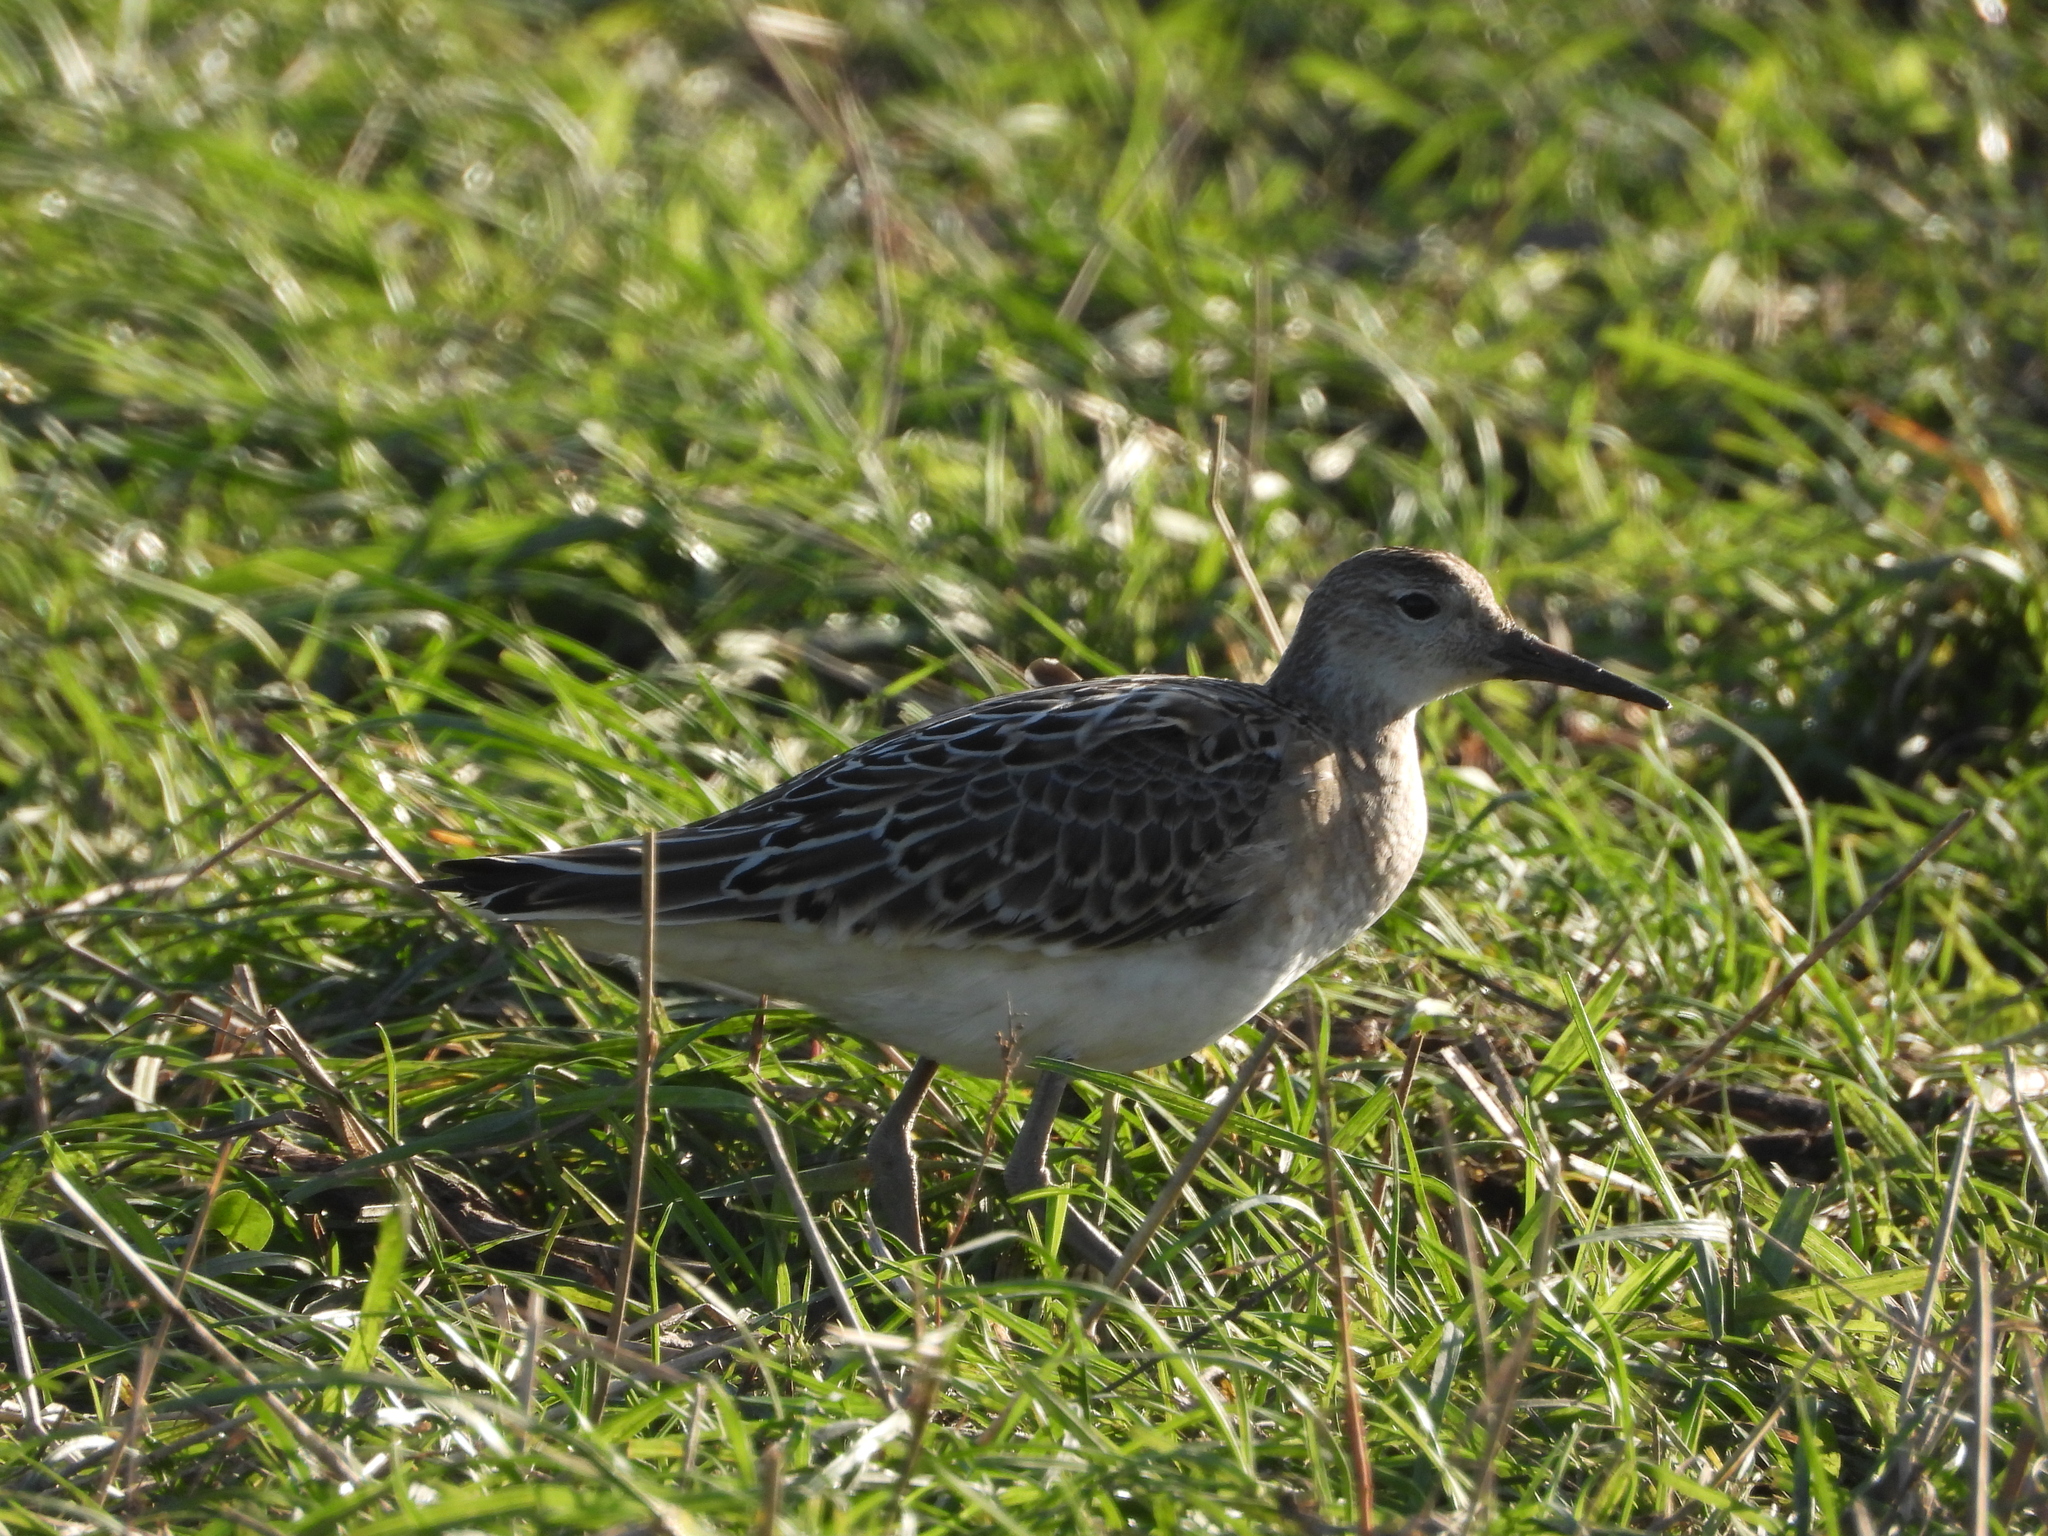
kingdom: Animalia
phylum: Chordata
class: Aves
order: Charadriiformes
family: Scolopacidae
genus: Calidris
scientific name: Calidris pugnax
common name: Ruff
